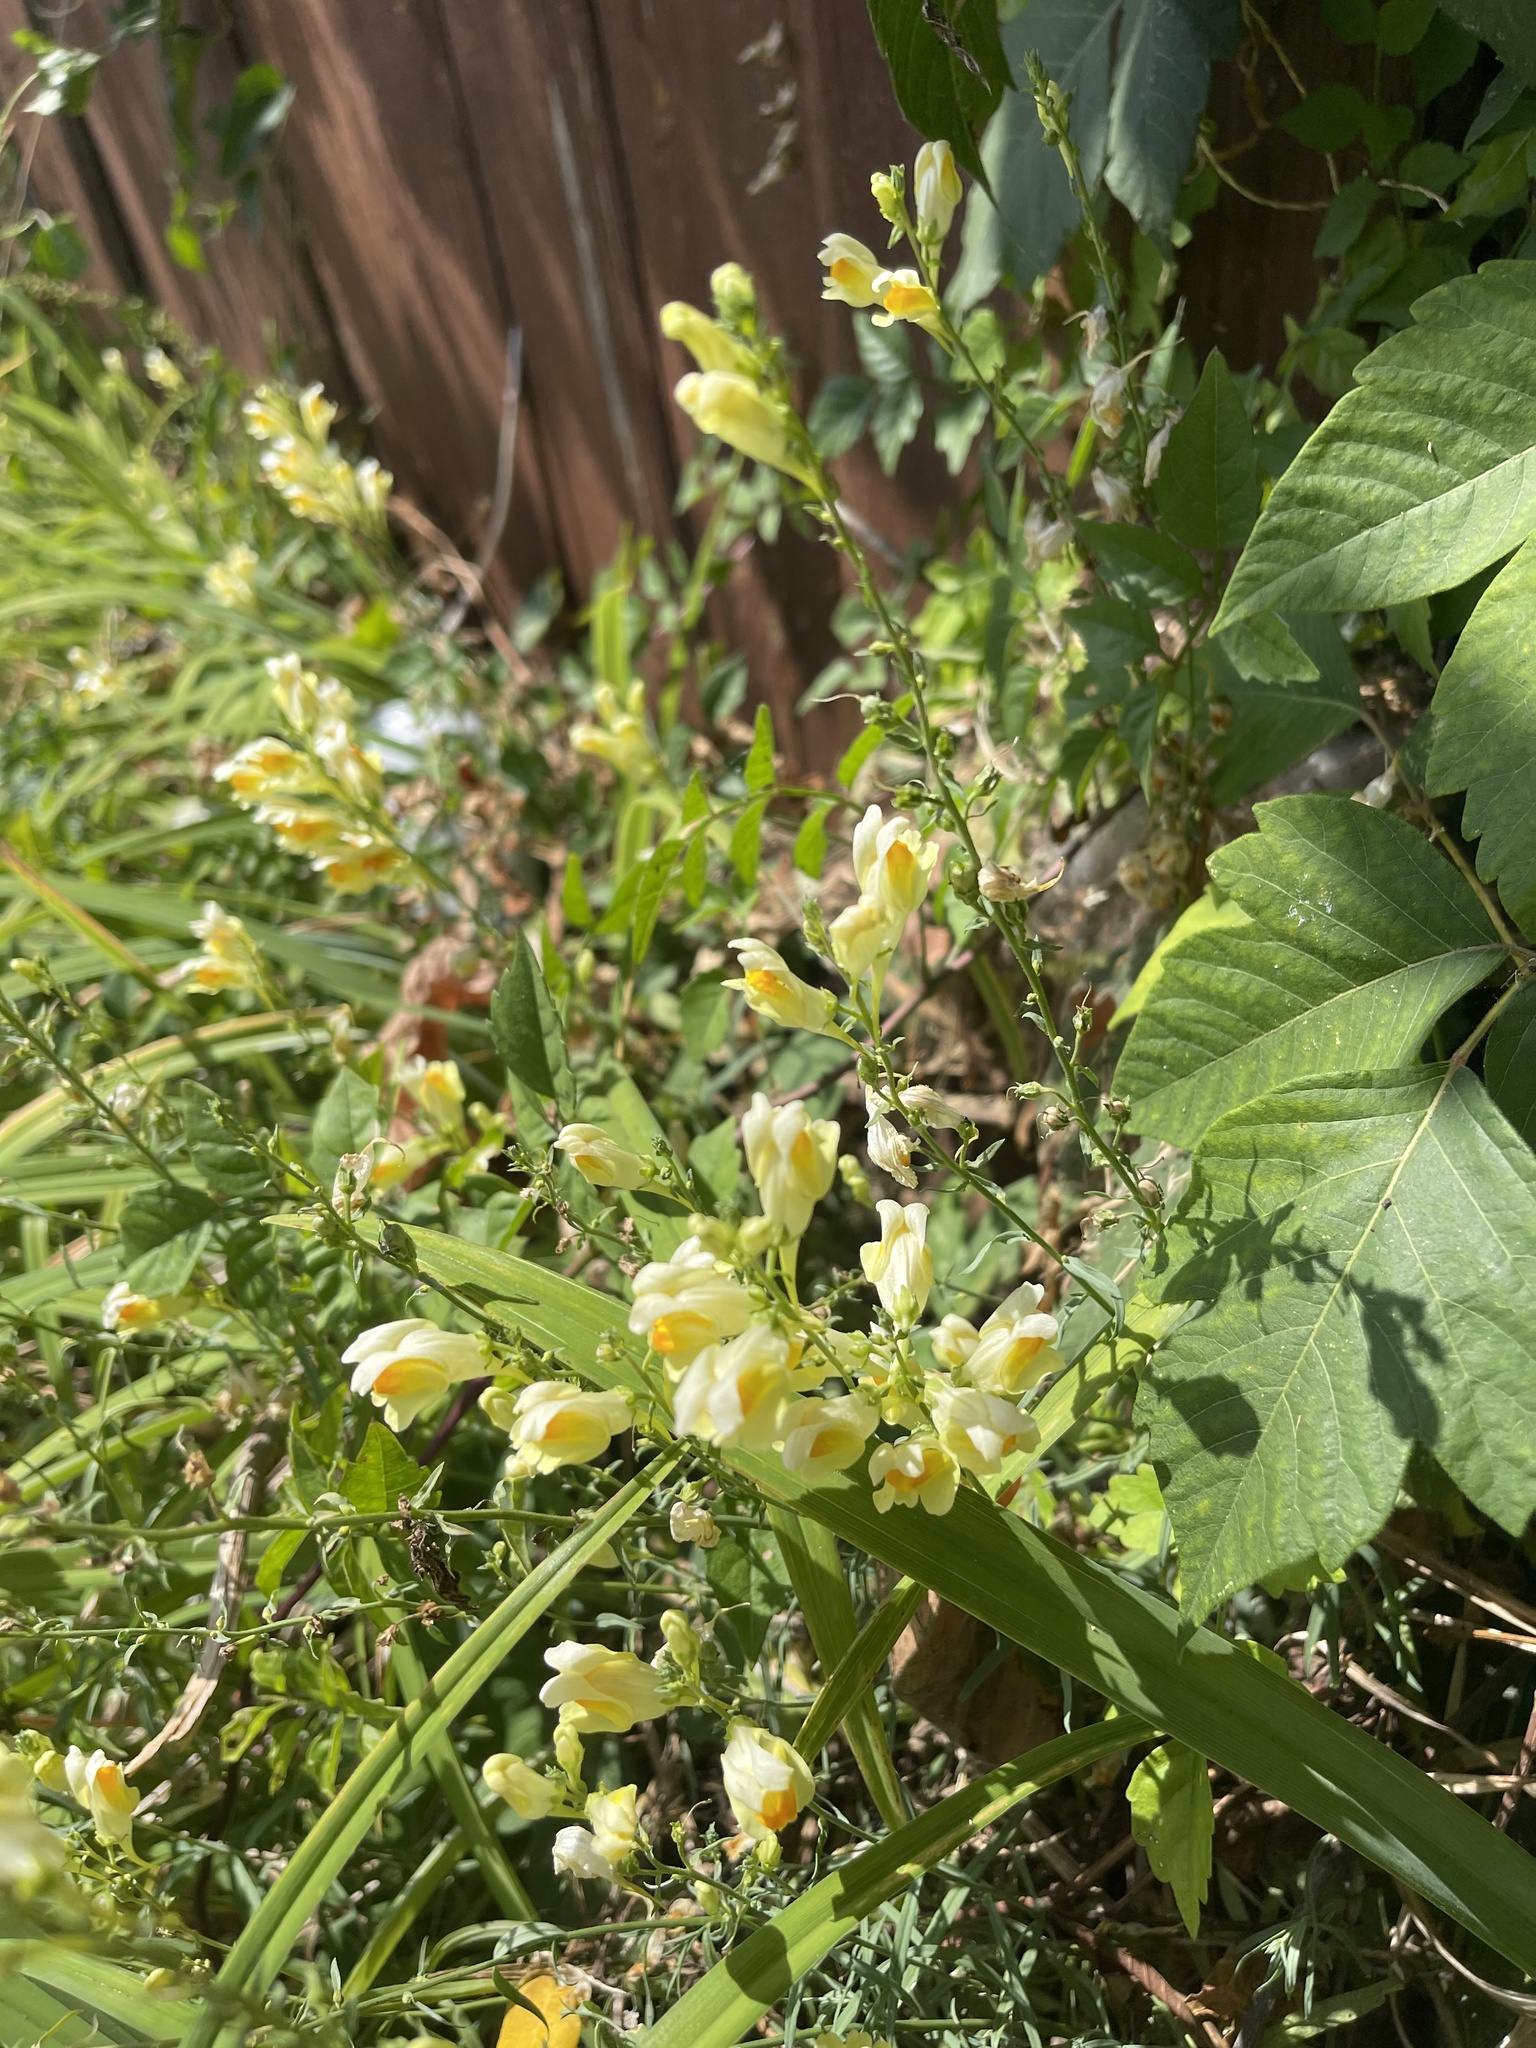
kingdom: Plantae
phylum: Tracheophyta
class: Magnoliopsida
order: Lamiales
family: Plantaginaceae
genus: Linaria
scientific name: Linaria vulgaris
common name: Butter and eggs
